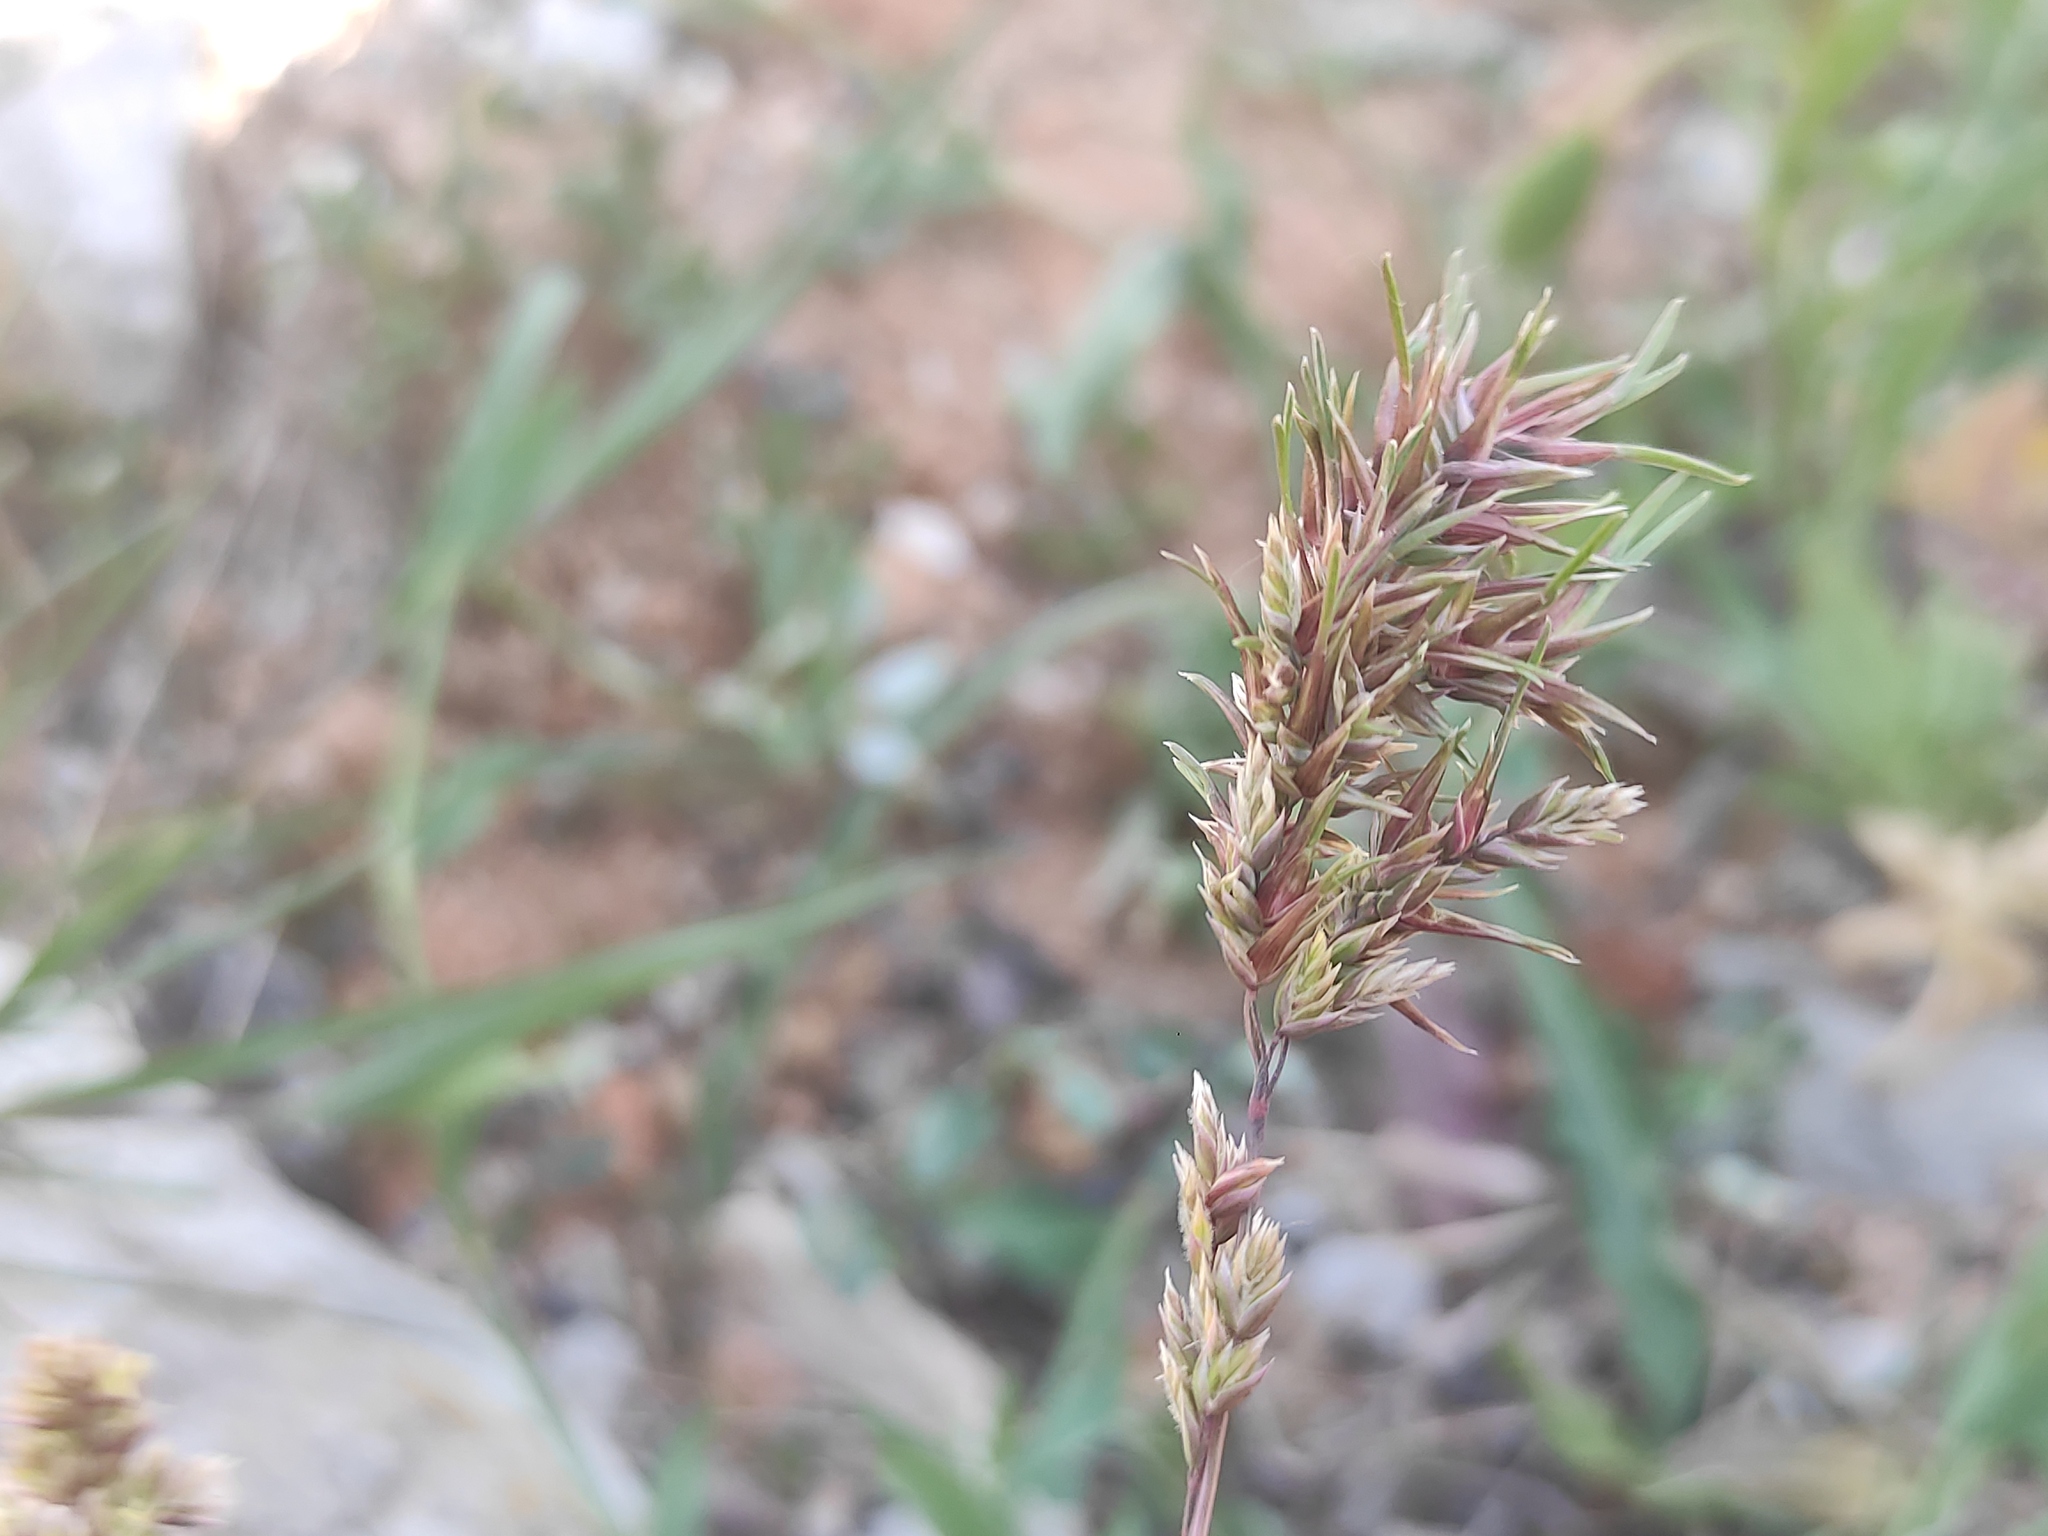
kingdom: Plantae
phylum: Tracheophyta
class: Liliopsida
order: Poales
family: Poaceae
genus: Poa
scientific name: Poa bulbosa
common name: Bulbous bluegrass
